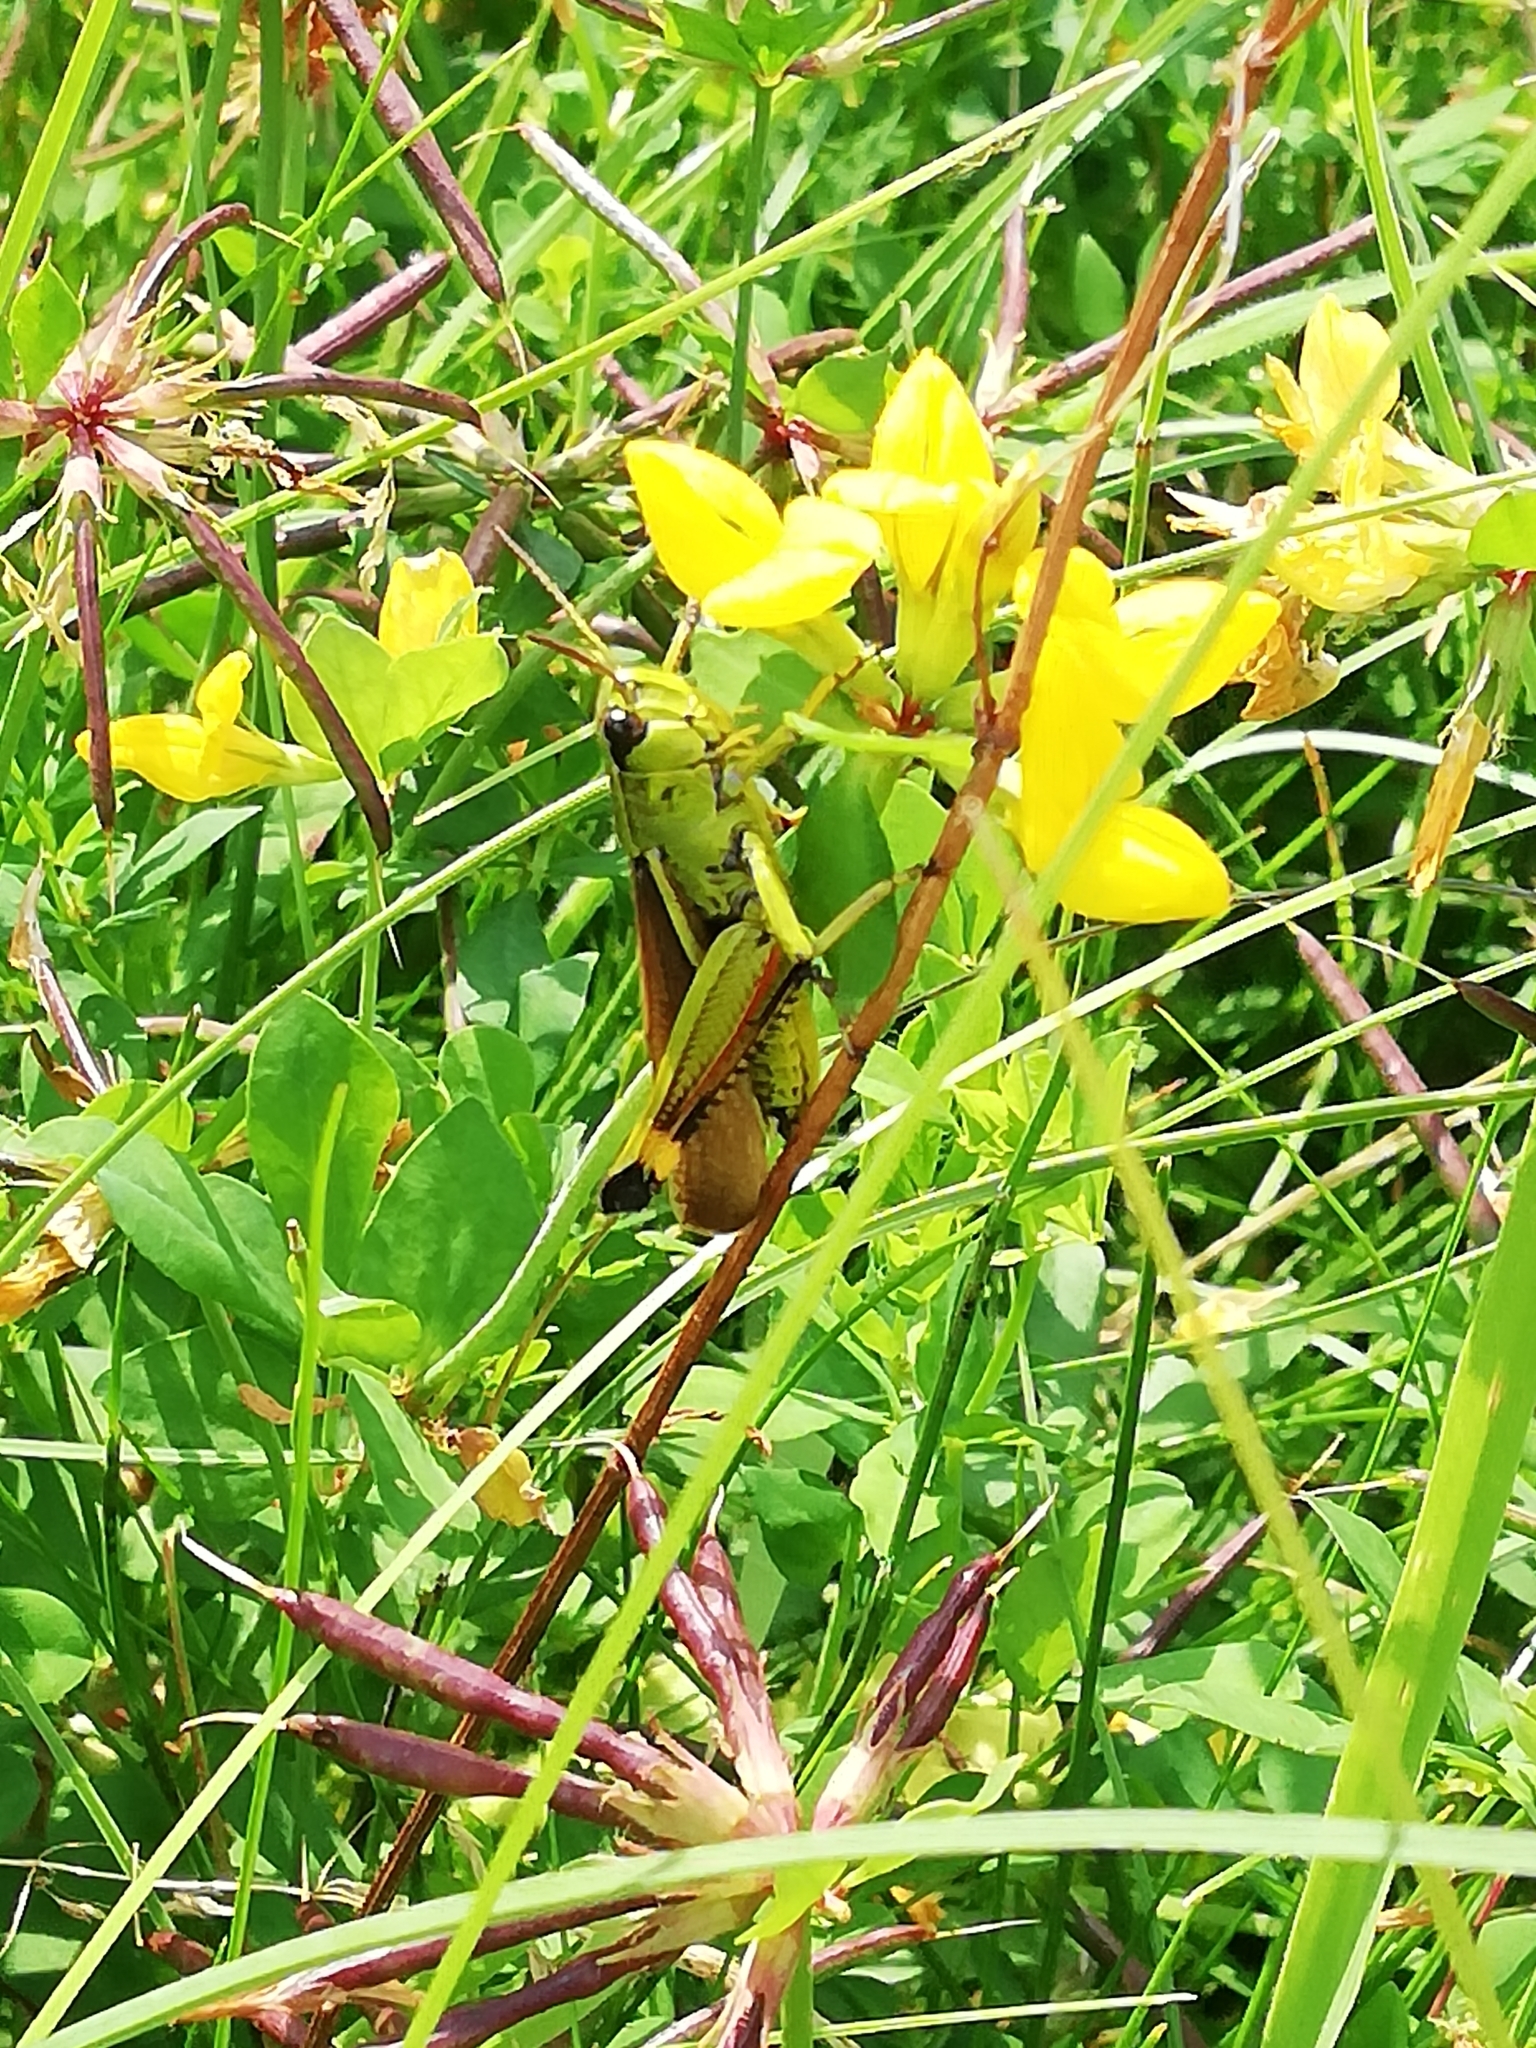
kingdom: Animalia
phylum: Arthropoda
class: Insecta
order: Orthoptera
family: Acrididae
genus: Stethophyma
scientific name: Stethophyma grossum
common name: Large marsh grasshopper
